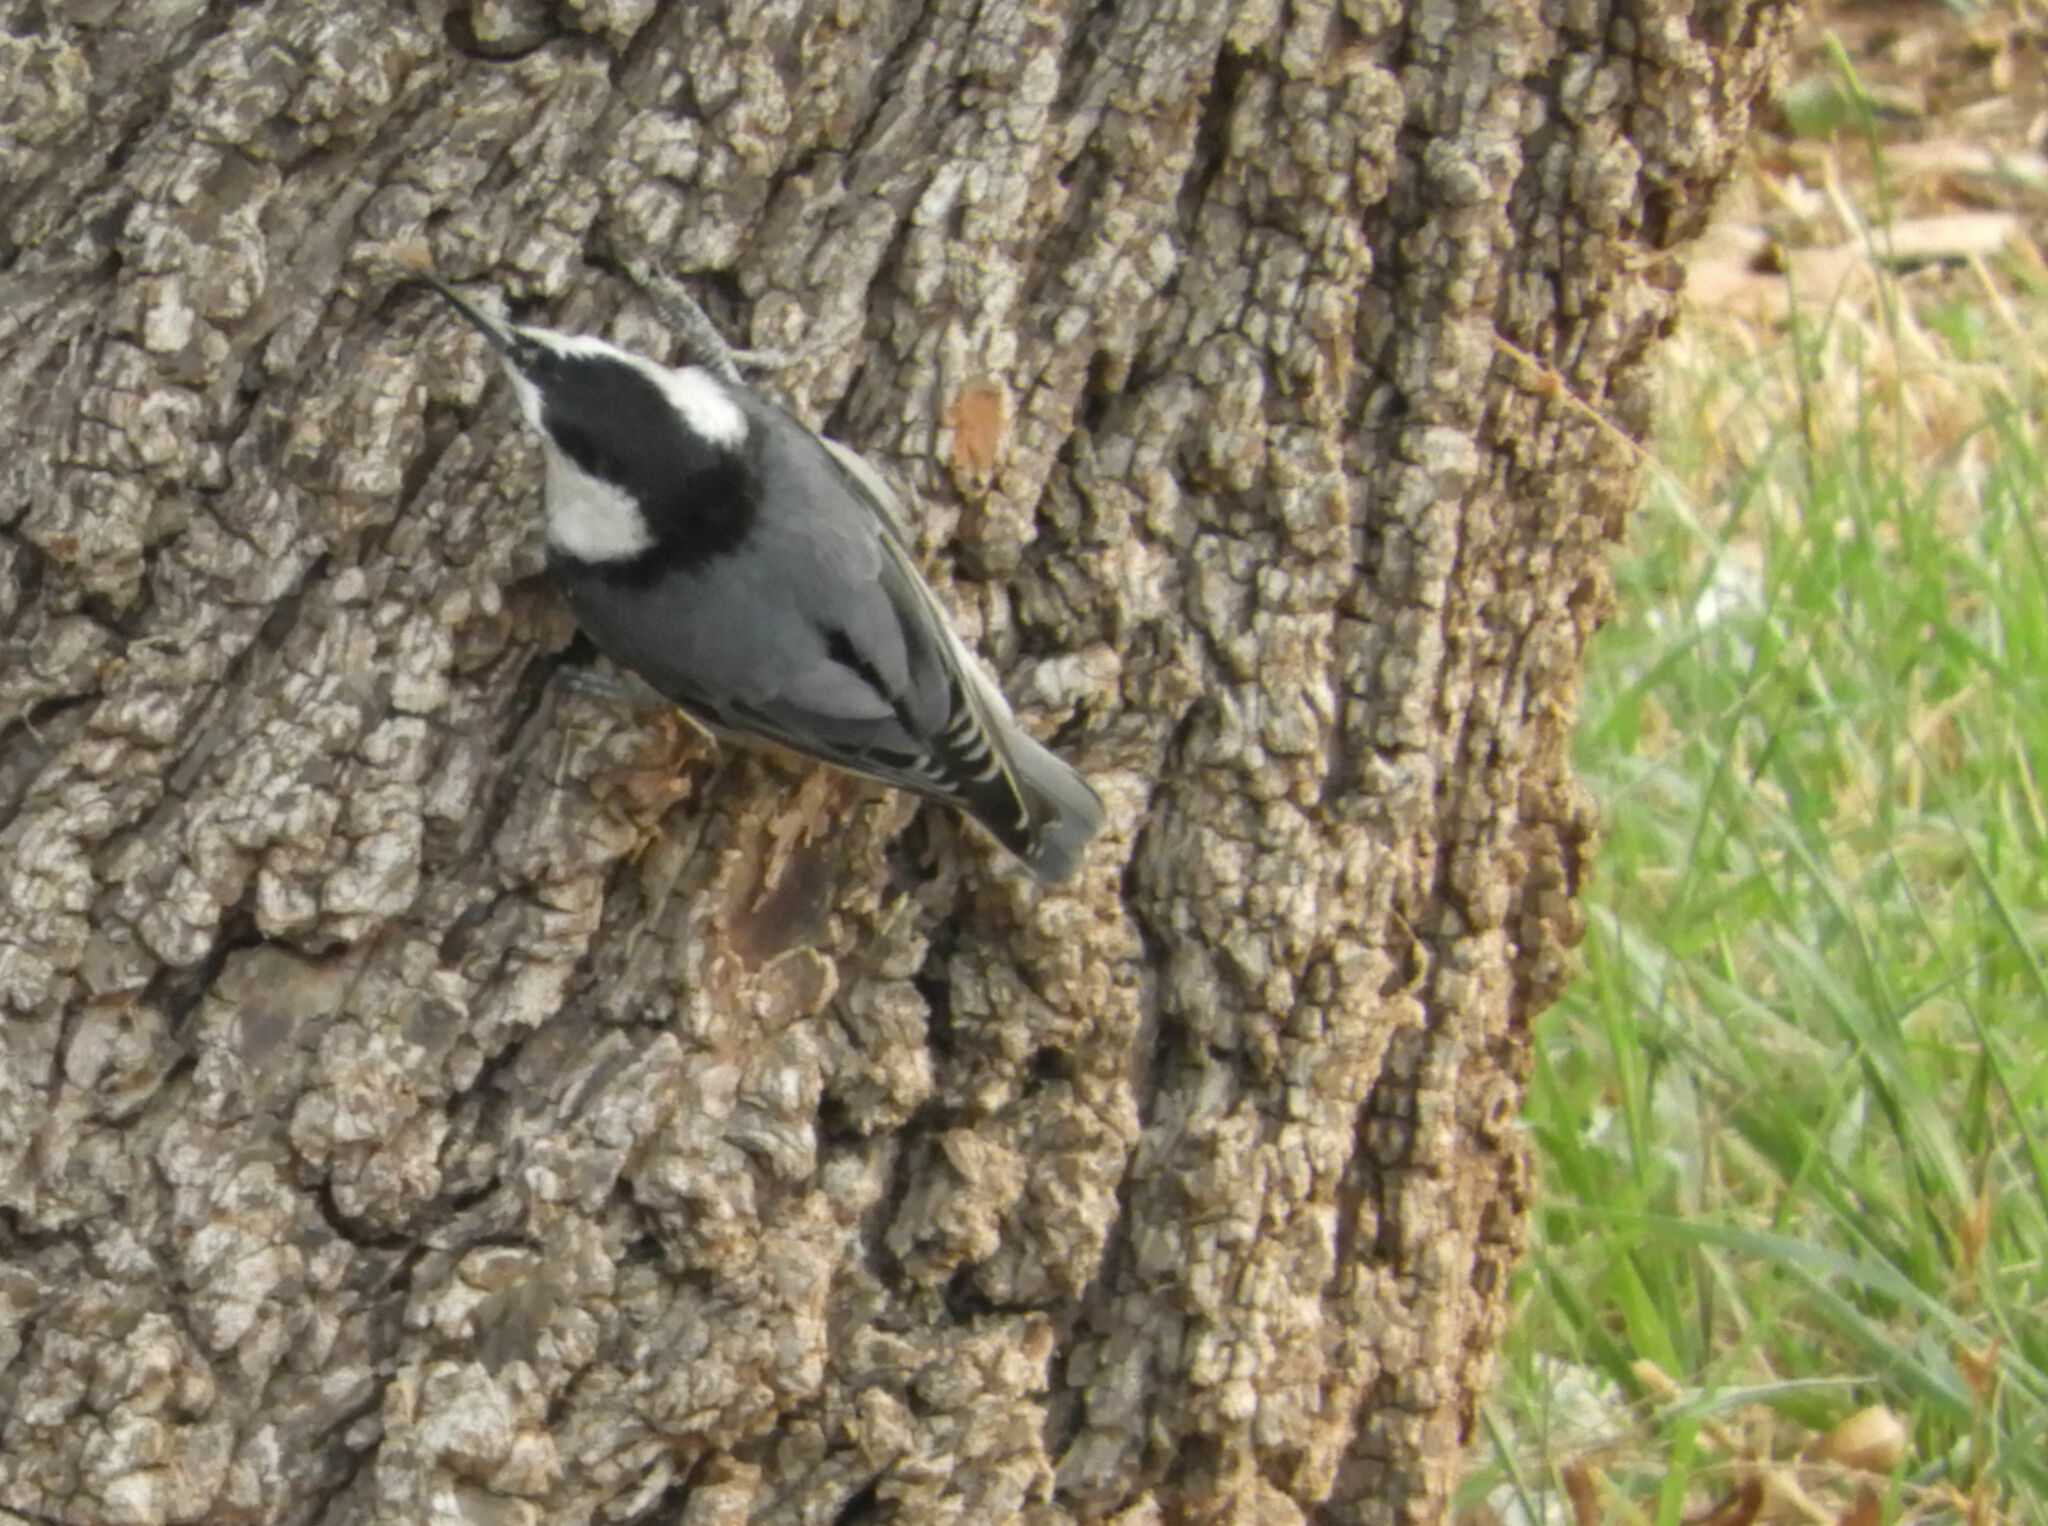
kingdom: Animalia
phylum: Chordata
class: Aves
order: Passeriformes
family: Sittidae
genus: Sitta
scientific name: Sitta carolinensis
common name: White-breasted nuthatch
